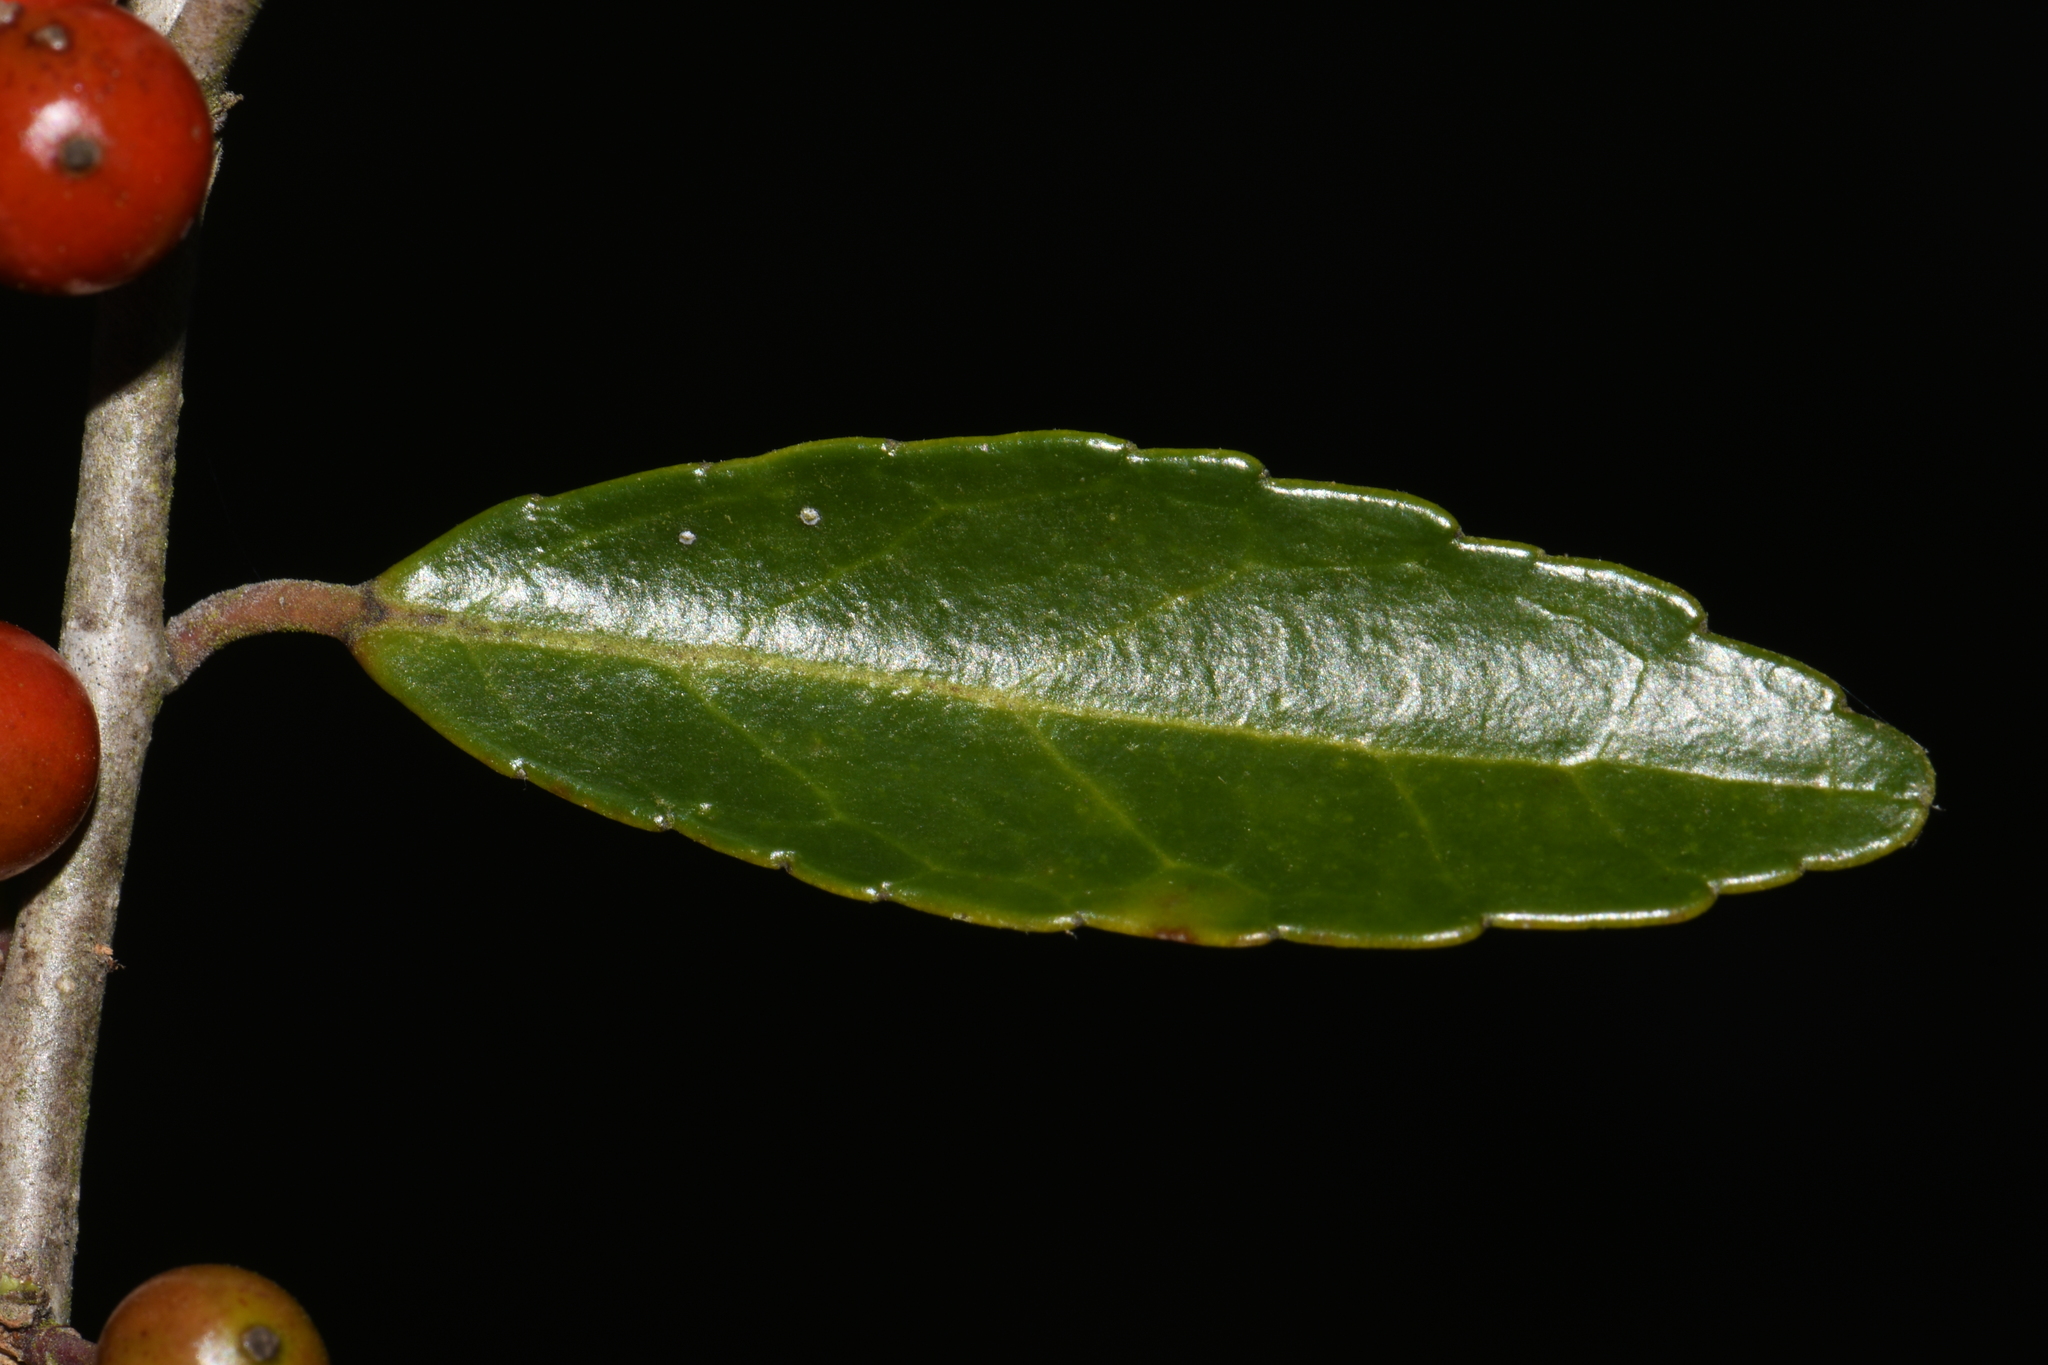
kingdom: Plantae
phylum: Tracheophyta
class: Magnoliopsida
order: Aquifoliales
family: Aquifoliaceae
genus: Ilex
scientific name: Ilex vomitoria
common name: Yaupon holly
